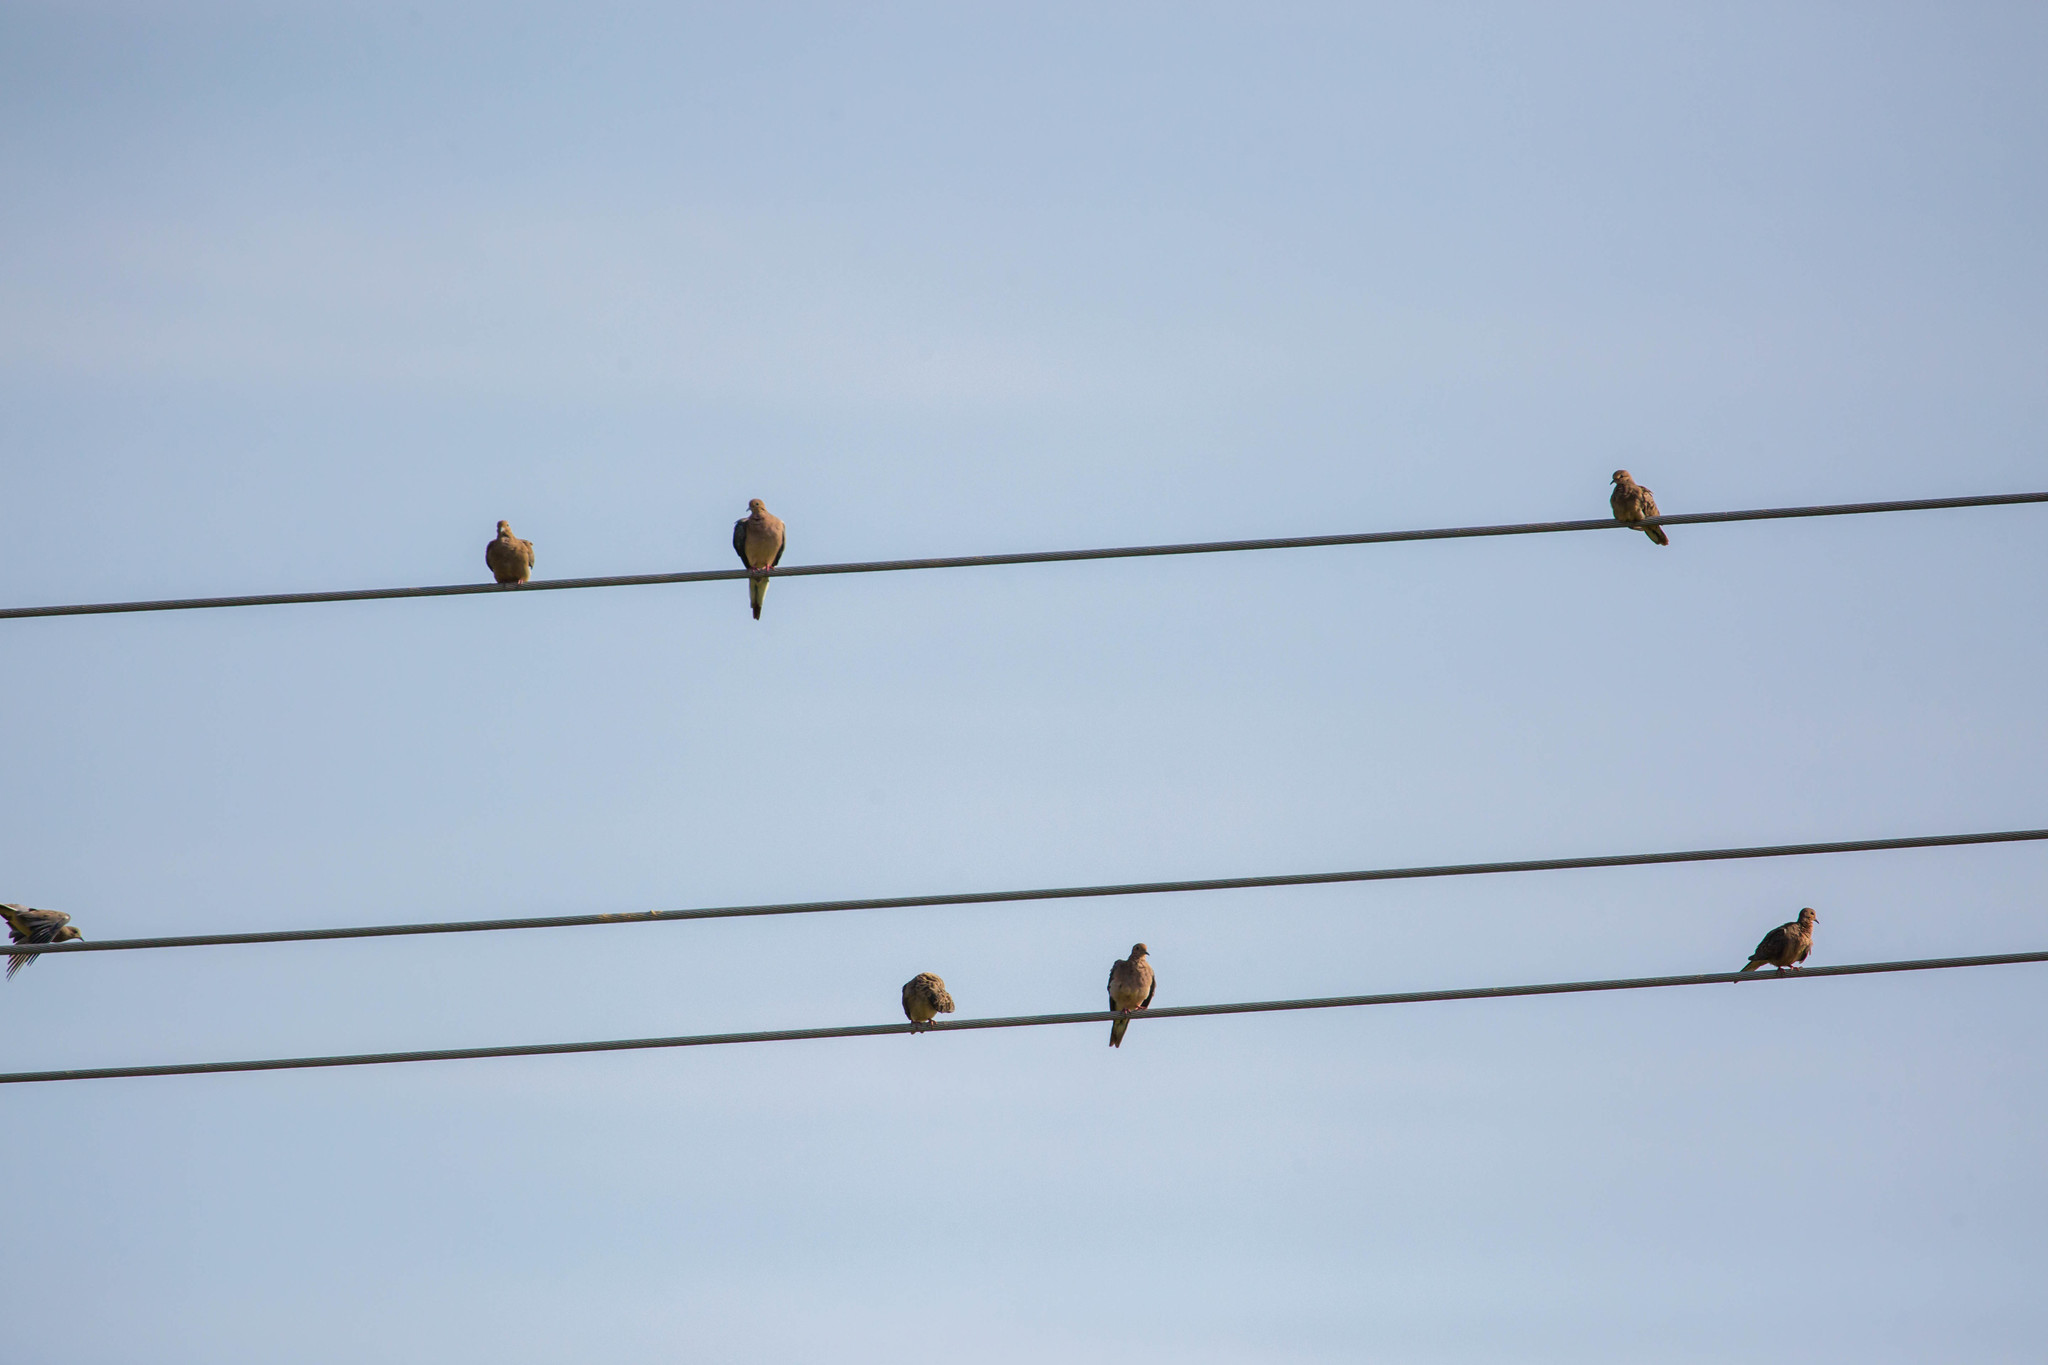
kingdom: Animalia
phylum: Chordata
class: Aves
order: Columbiformes
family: Columbidae
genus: Zenaida
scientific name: Zenaida macroura
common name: Mourning dove
